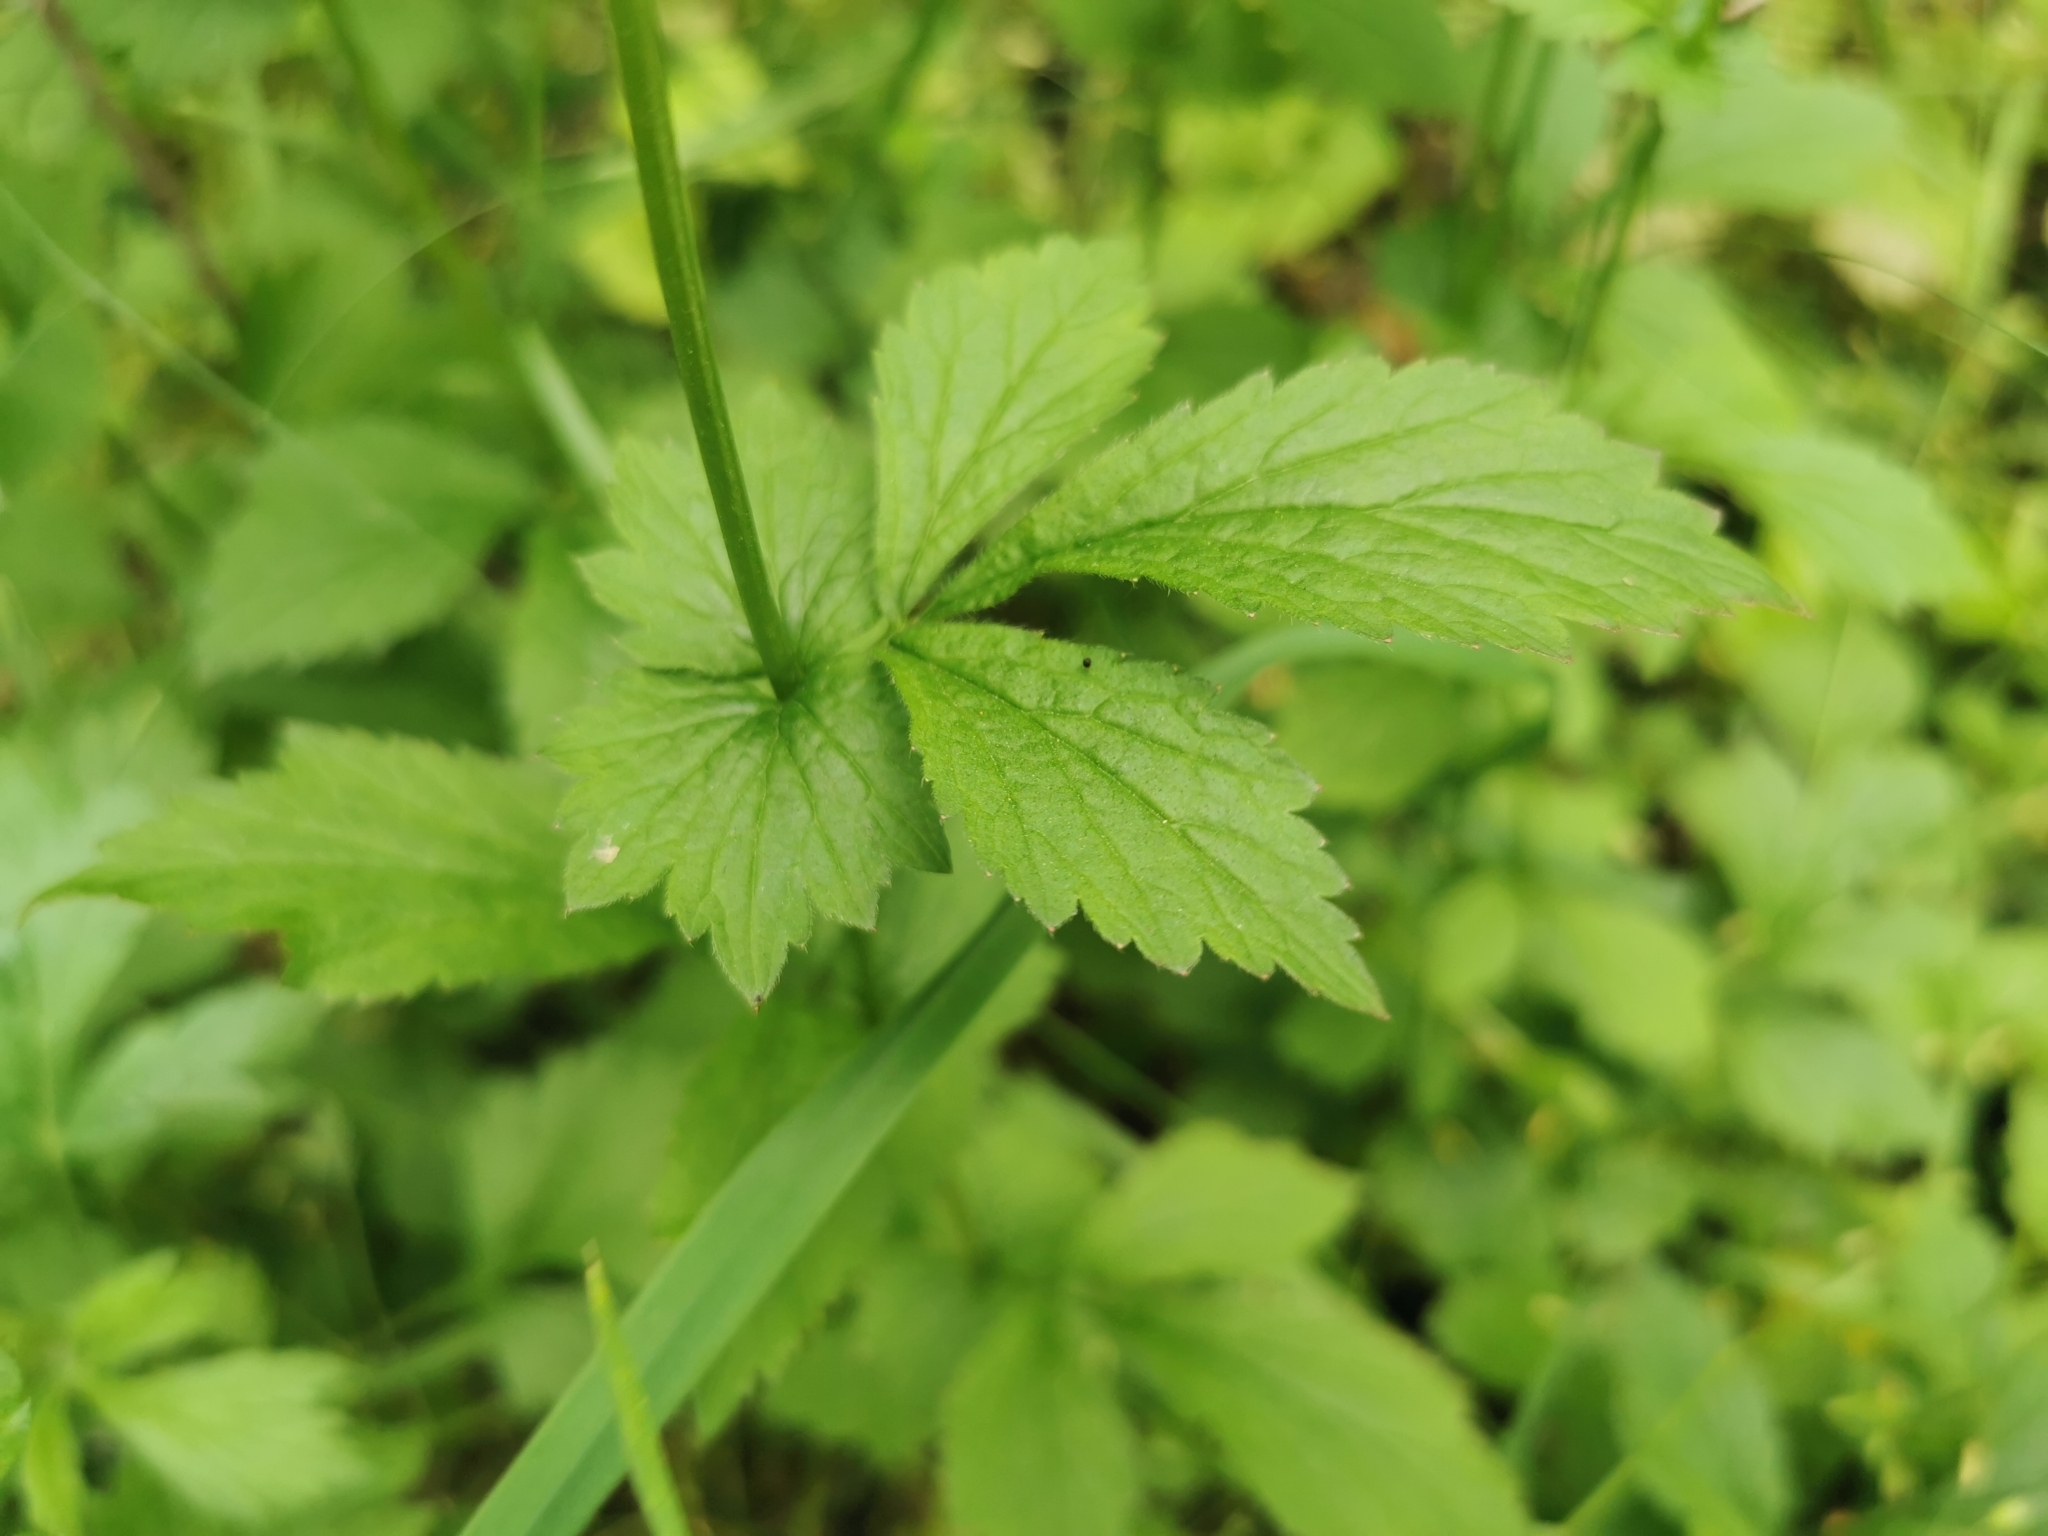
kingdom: Plantae
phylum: Tracheophyta
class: Magnoliopsida
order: Rosales
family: Rosaceae
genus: Geum
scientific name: Geum urbanum
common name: Wood avens
